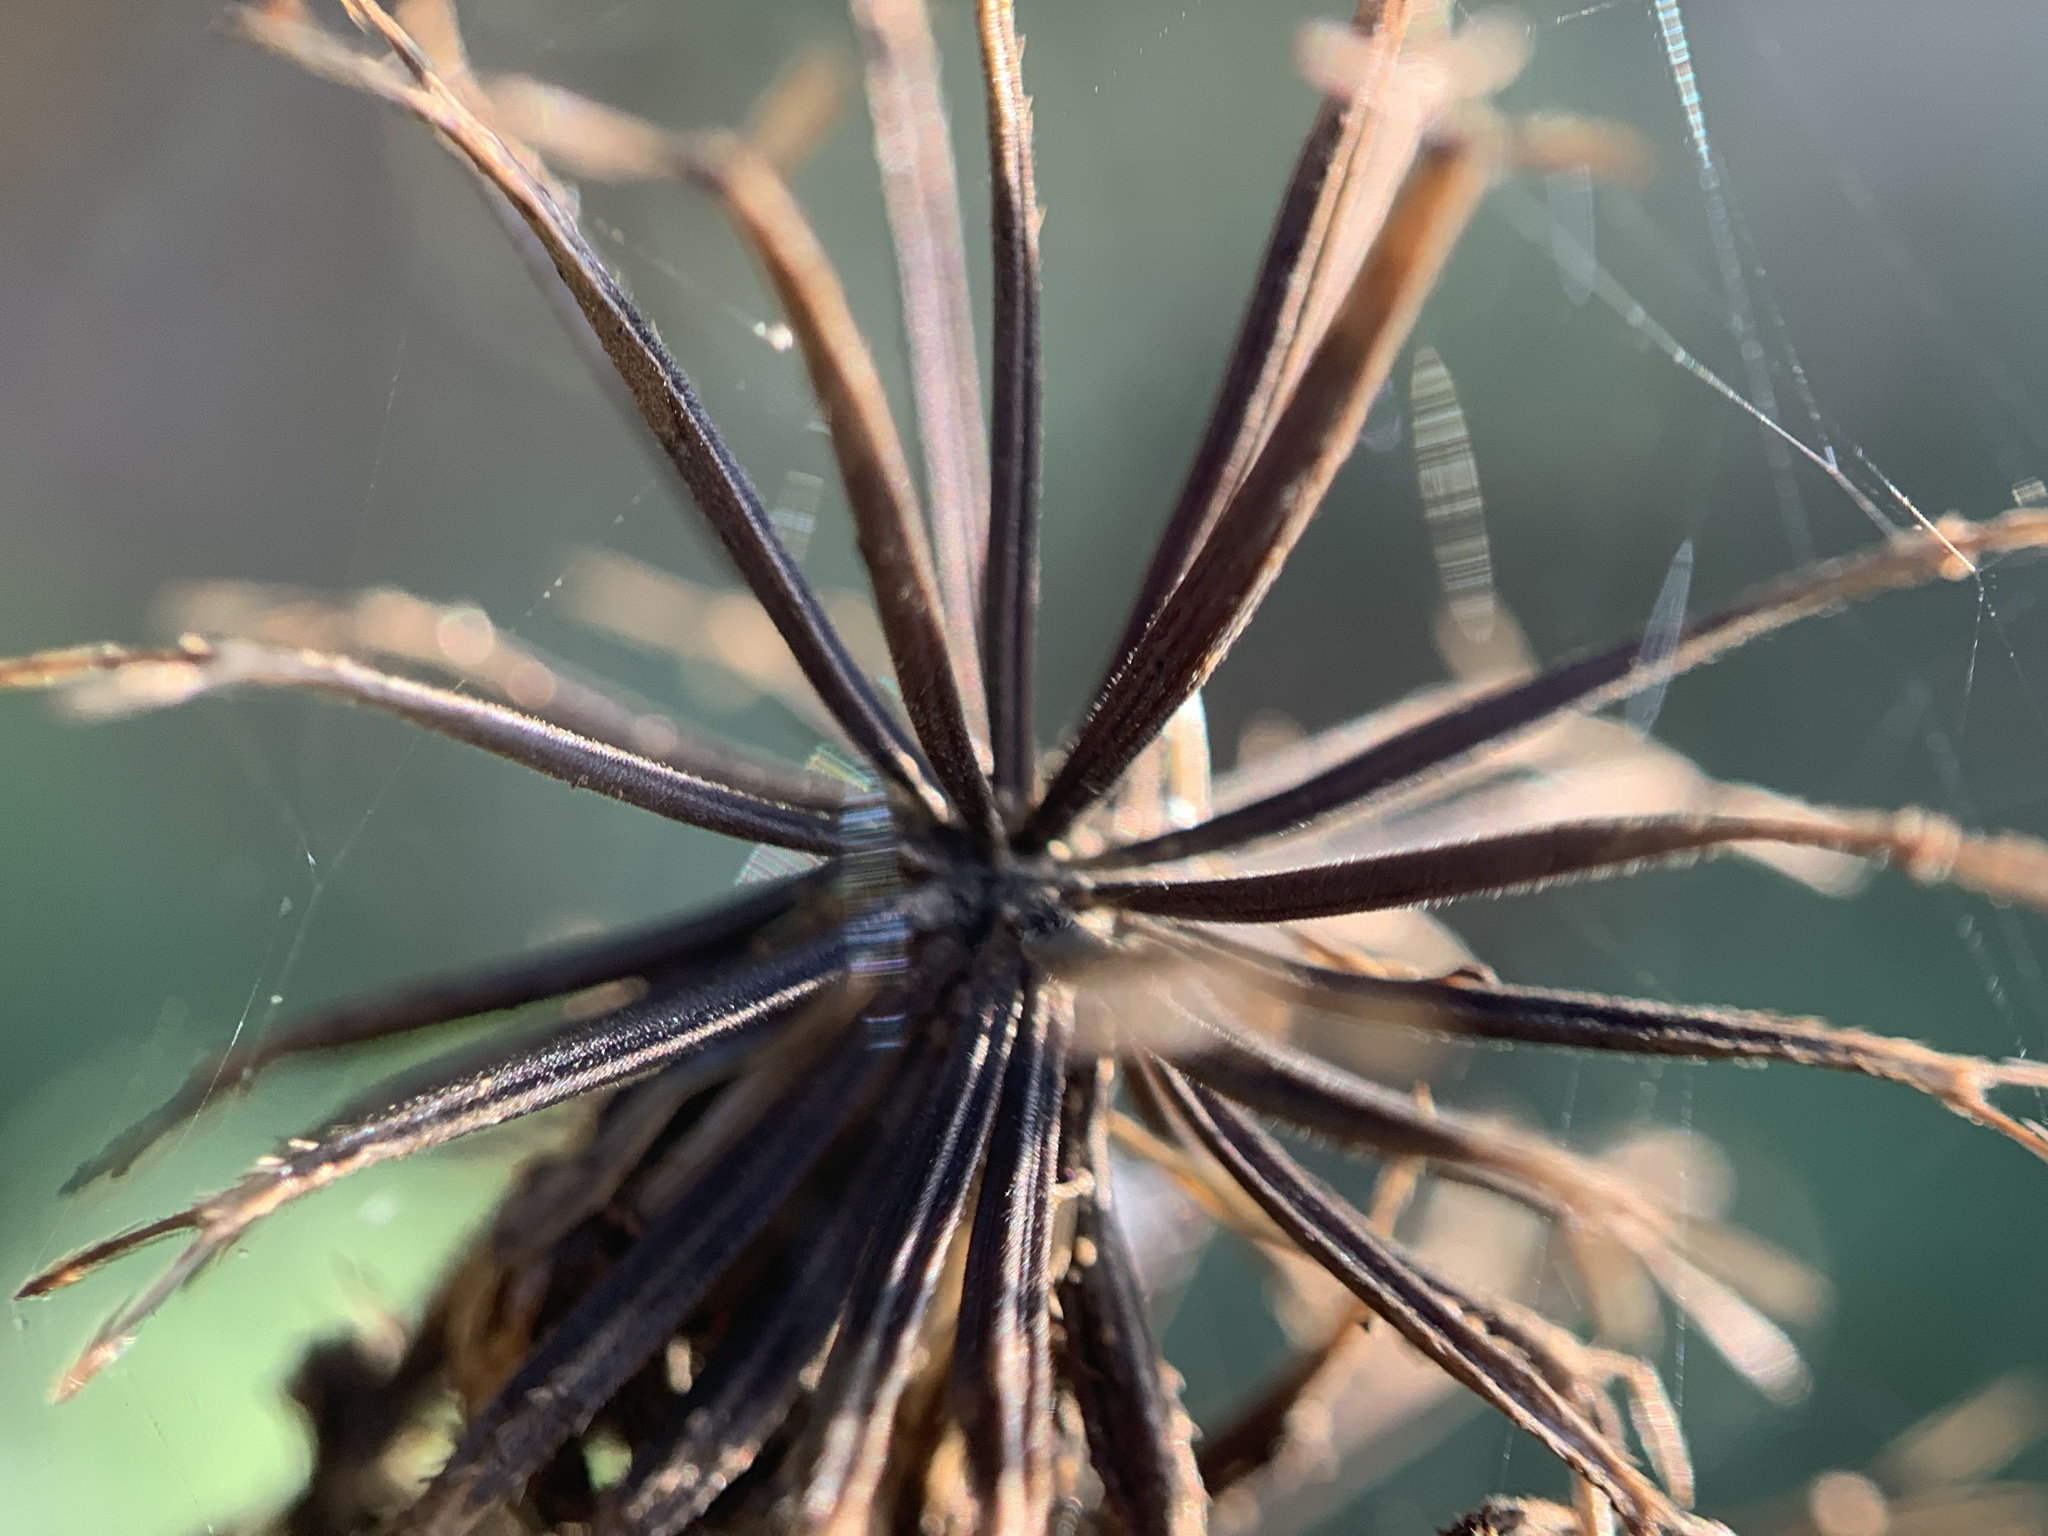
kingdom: Plantae
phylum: Tracheophyta
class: Magnoliopsida
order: Asterales
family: Asteraceae
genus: Bidens
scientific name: Bidens alba
